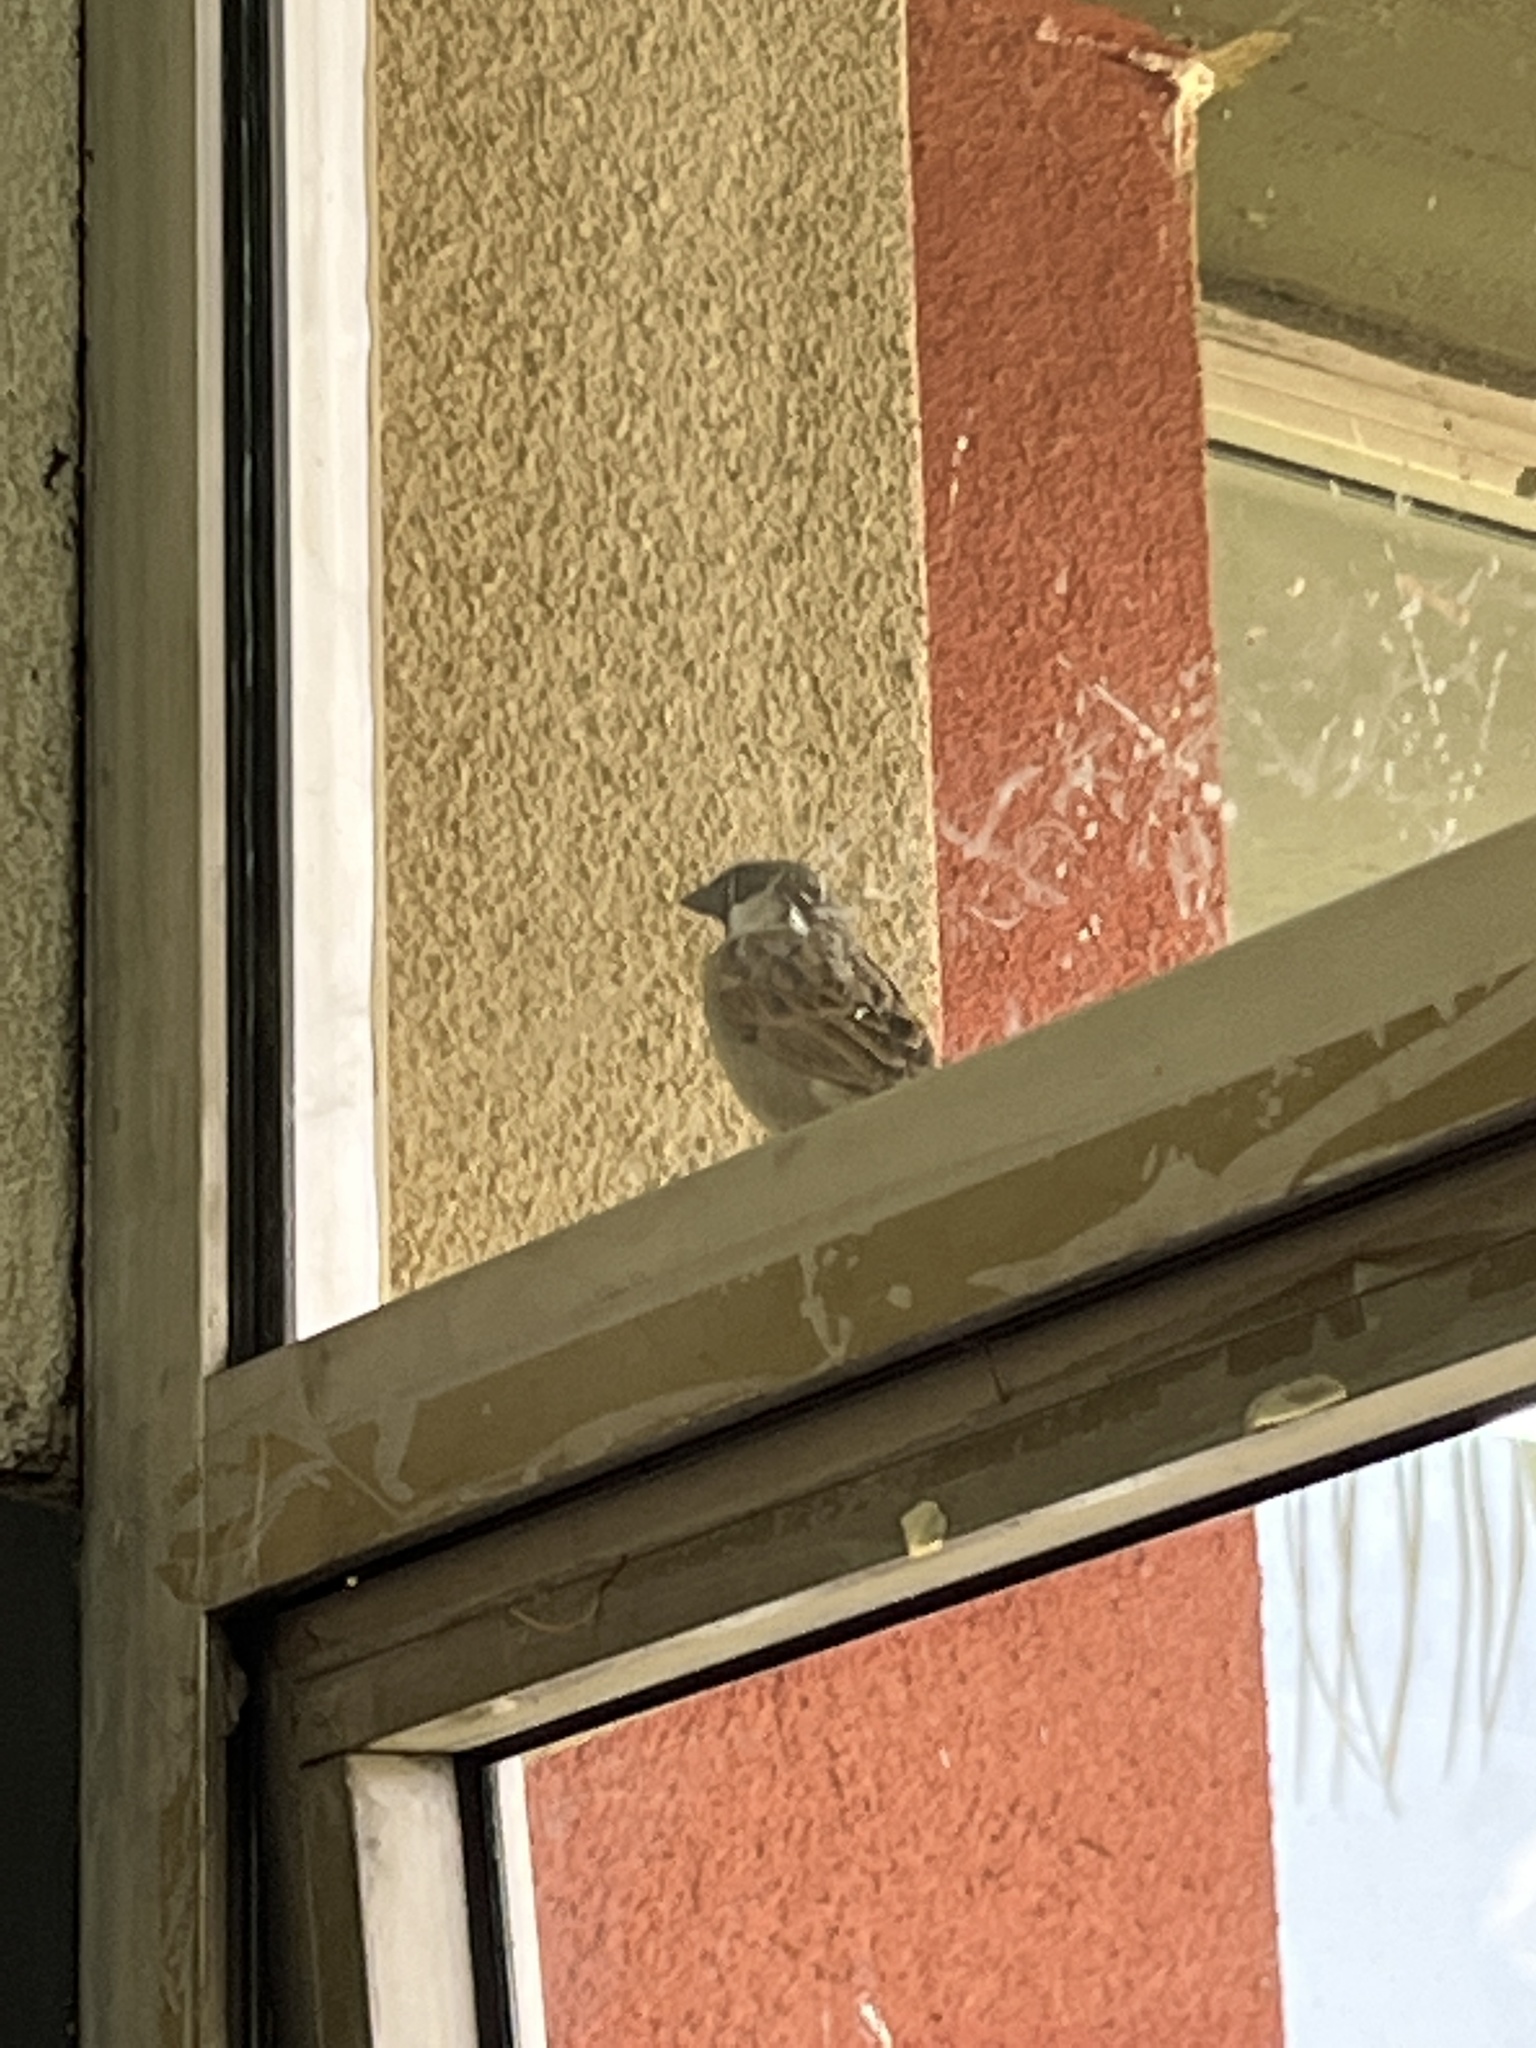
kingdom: Animalia
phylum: Chordata
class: Aves
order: Passeriformes
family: Passeridae
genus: Passer
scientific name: Passer domesticus
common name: House sparrow
